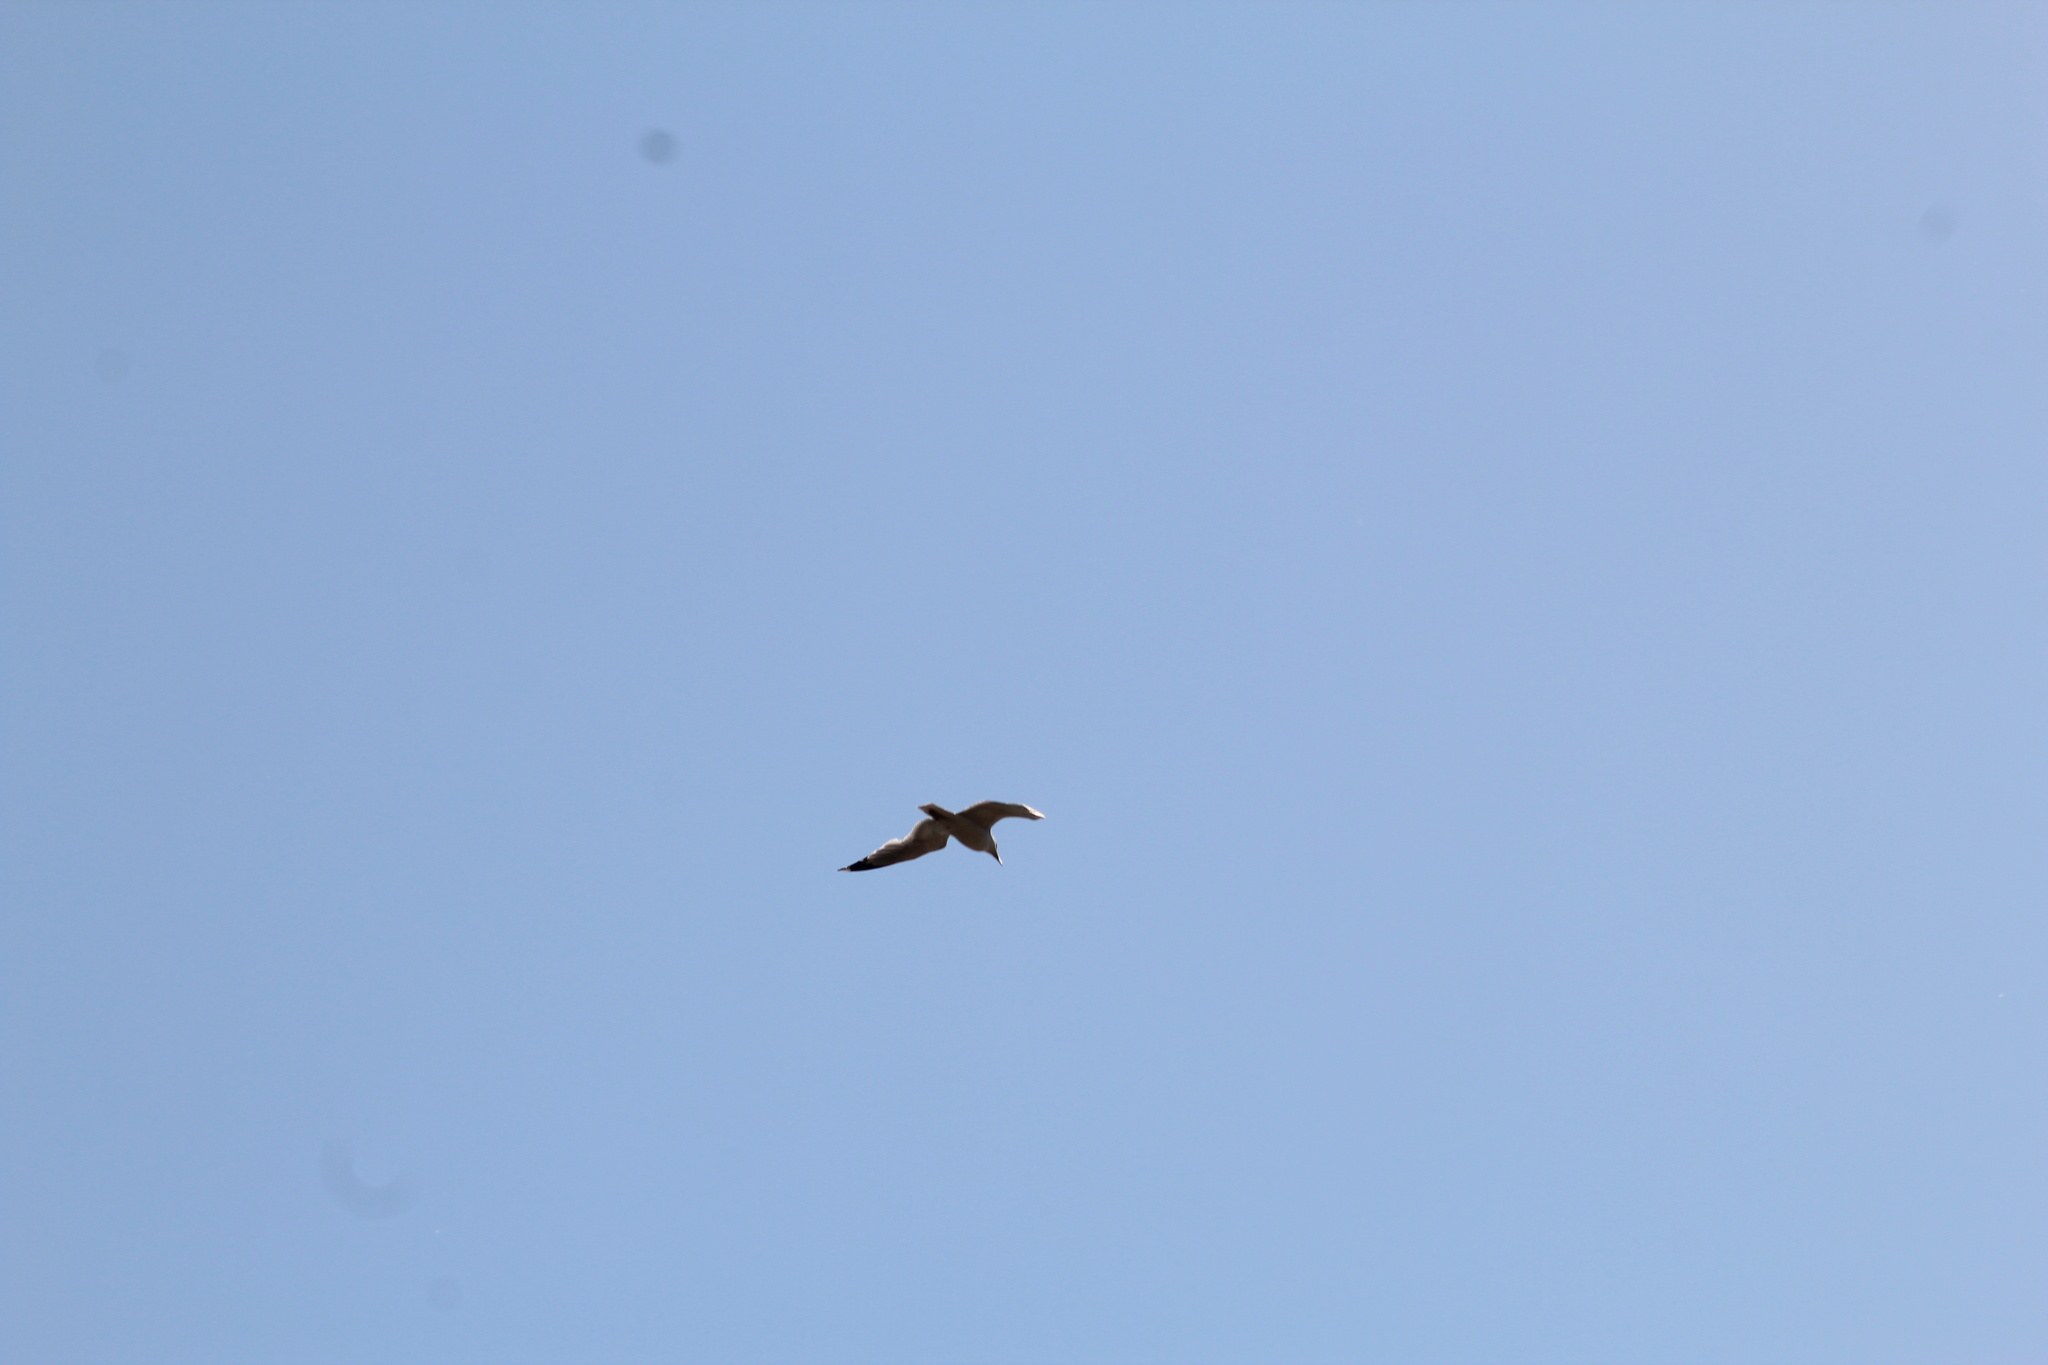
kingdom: Animalia
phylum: Chordata
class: Aves
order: Charadriiformes
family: Laridae
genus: Larus
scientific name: Larus delawarensis
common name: Ring-billed gull
